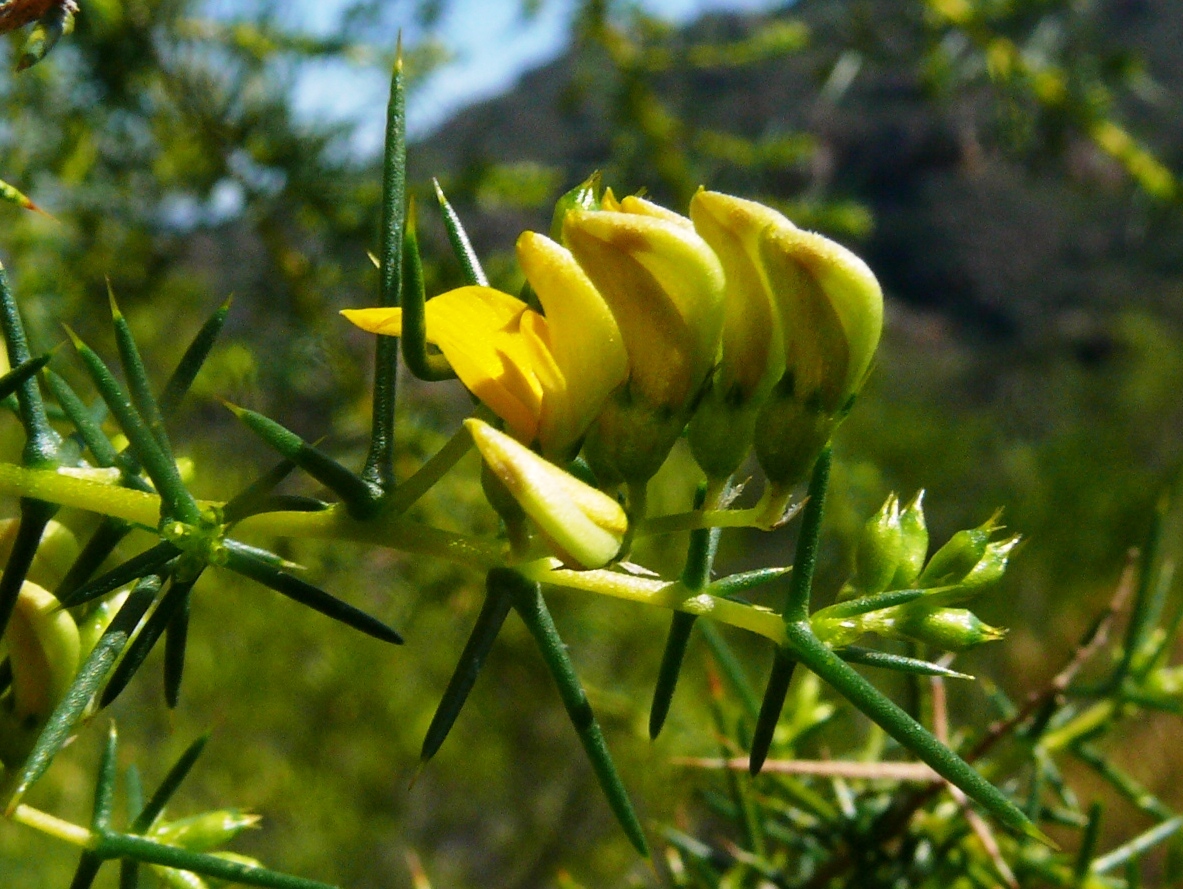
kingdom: Plantae
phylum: Tracheophyta
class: Magnoliopsida
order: Fabales
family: Fabaceae
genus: Aspalathus
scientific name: Aspalathus vulnerans
